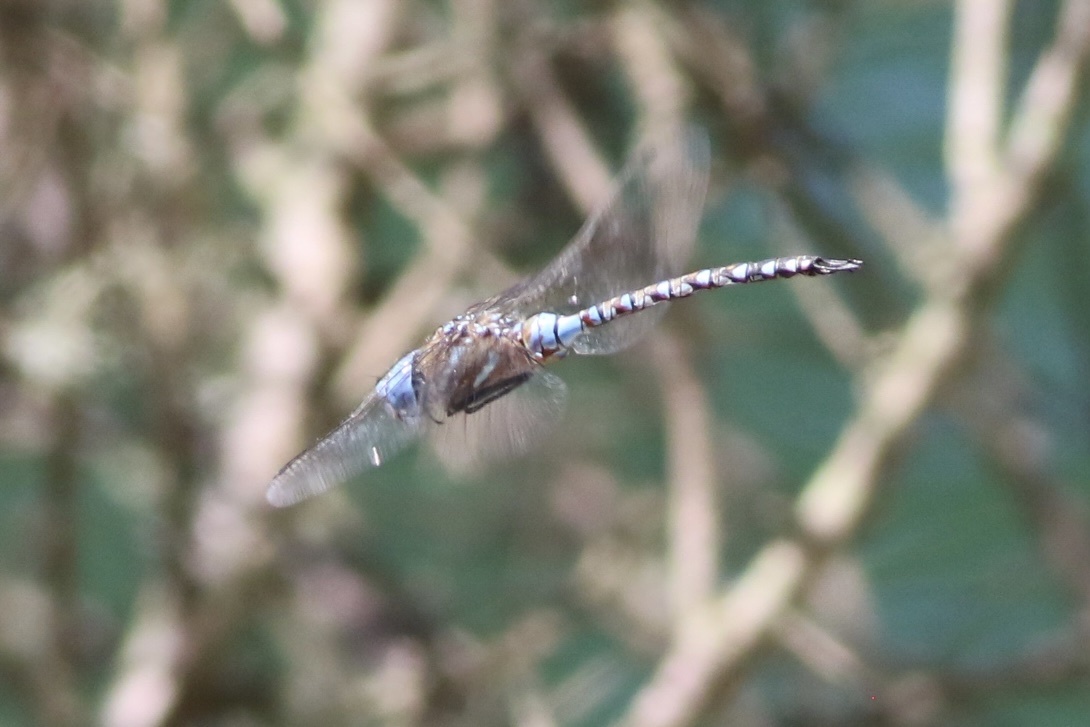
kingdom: Animalia
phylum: Arthropoda
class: Insecta
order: Odonata
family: Aeshnidae
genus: Rhionaeschna
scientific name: Rhionaeschna multicolor
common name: Blue-eyed darner
